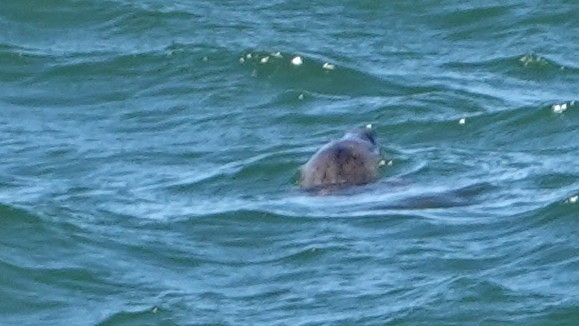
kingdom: Animalia
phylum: Chordata
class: Mammalia
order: Carnivora
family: Phocidae
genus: Halichoerus
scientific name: Halichoerus grypus
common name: Grey seal
